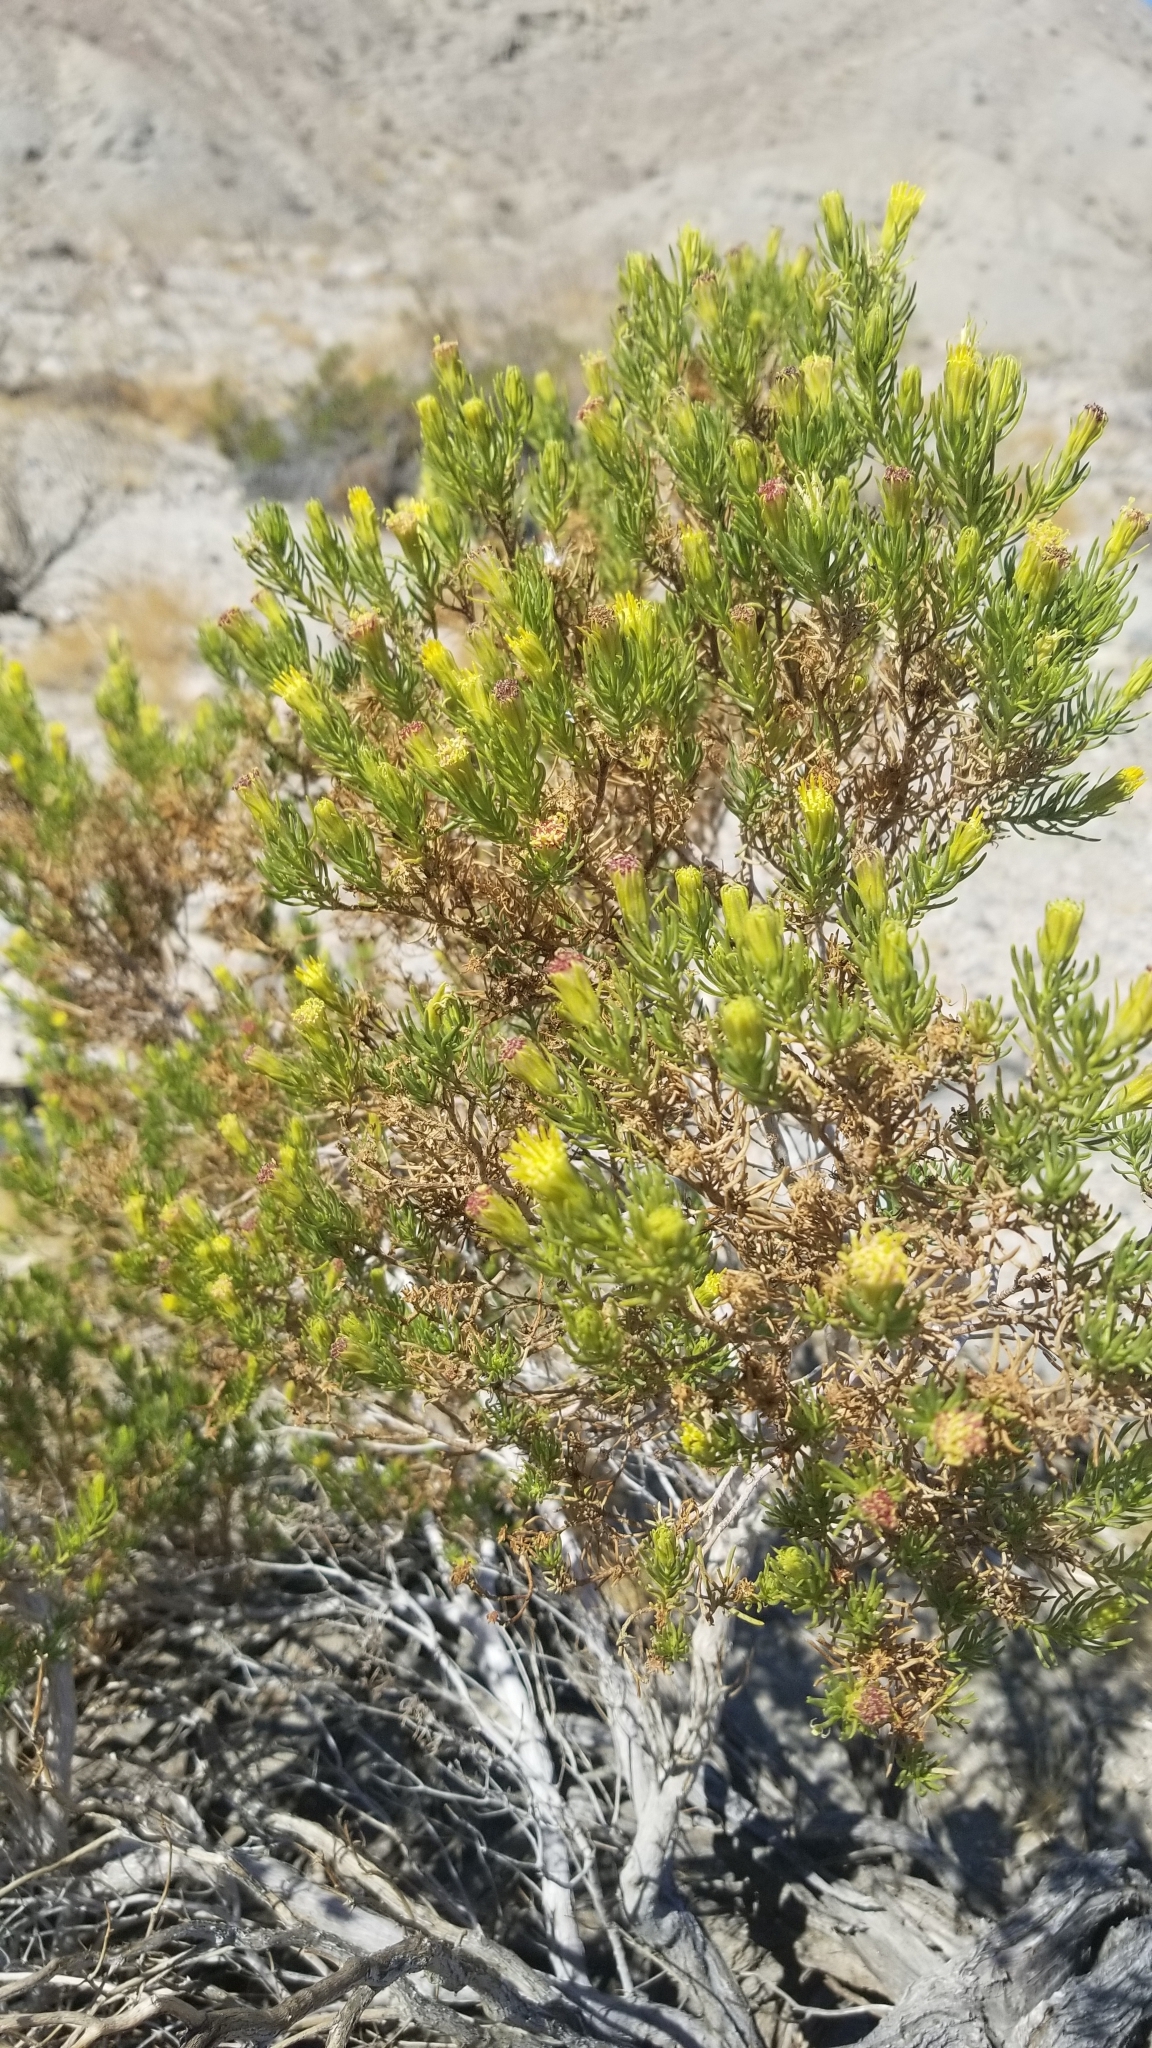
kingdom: Plantae
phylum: Tracheophyta
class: Magnoliopsida
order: Asterales
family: Asteraceae
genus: Peucephyllum
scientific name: Peucephyllum schottii
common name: Pygmy-cedar
